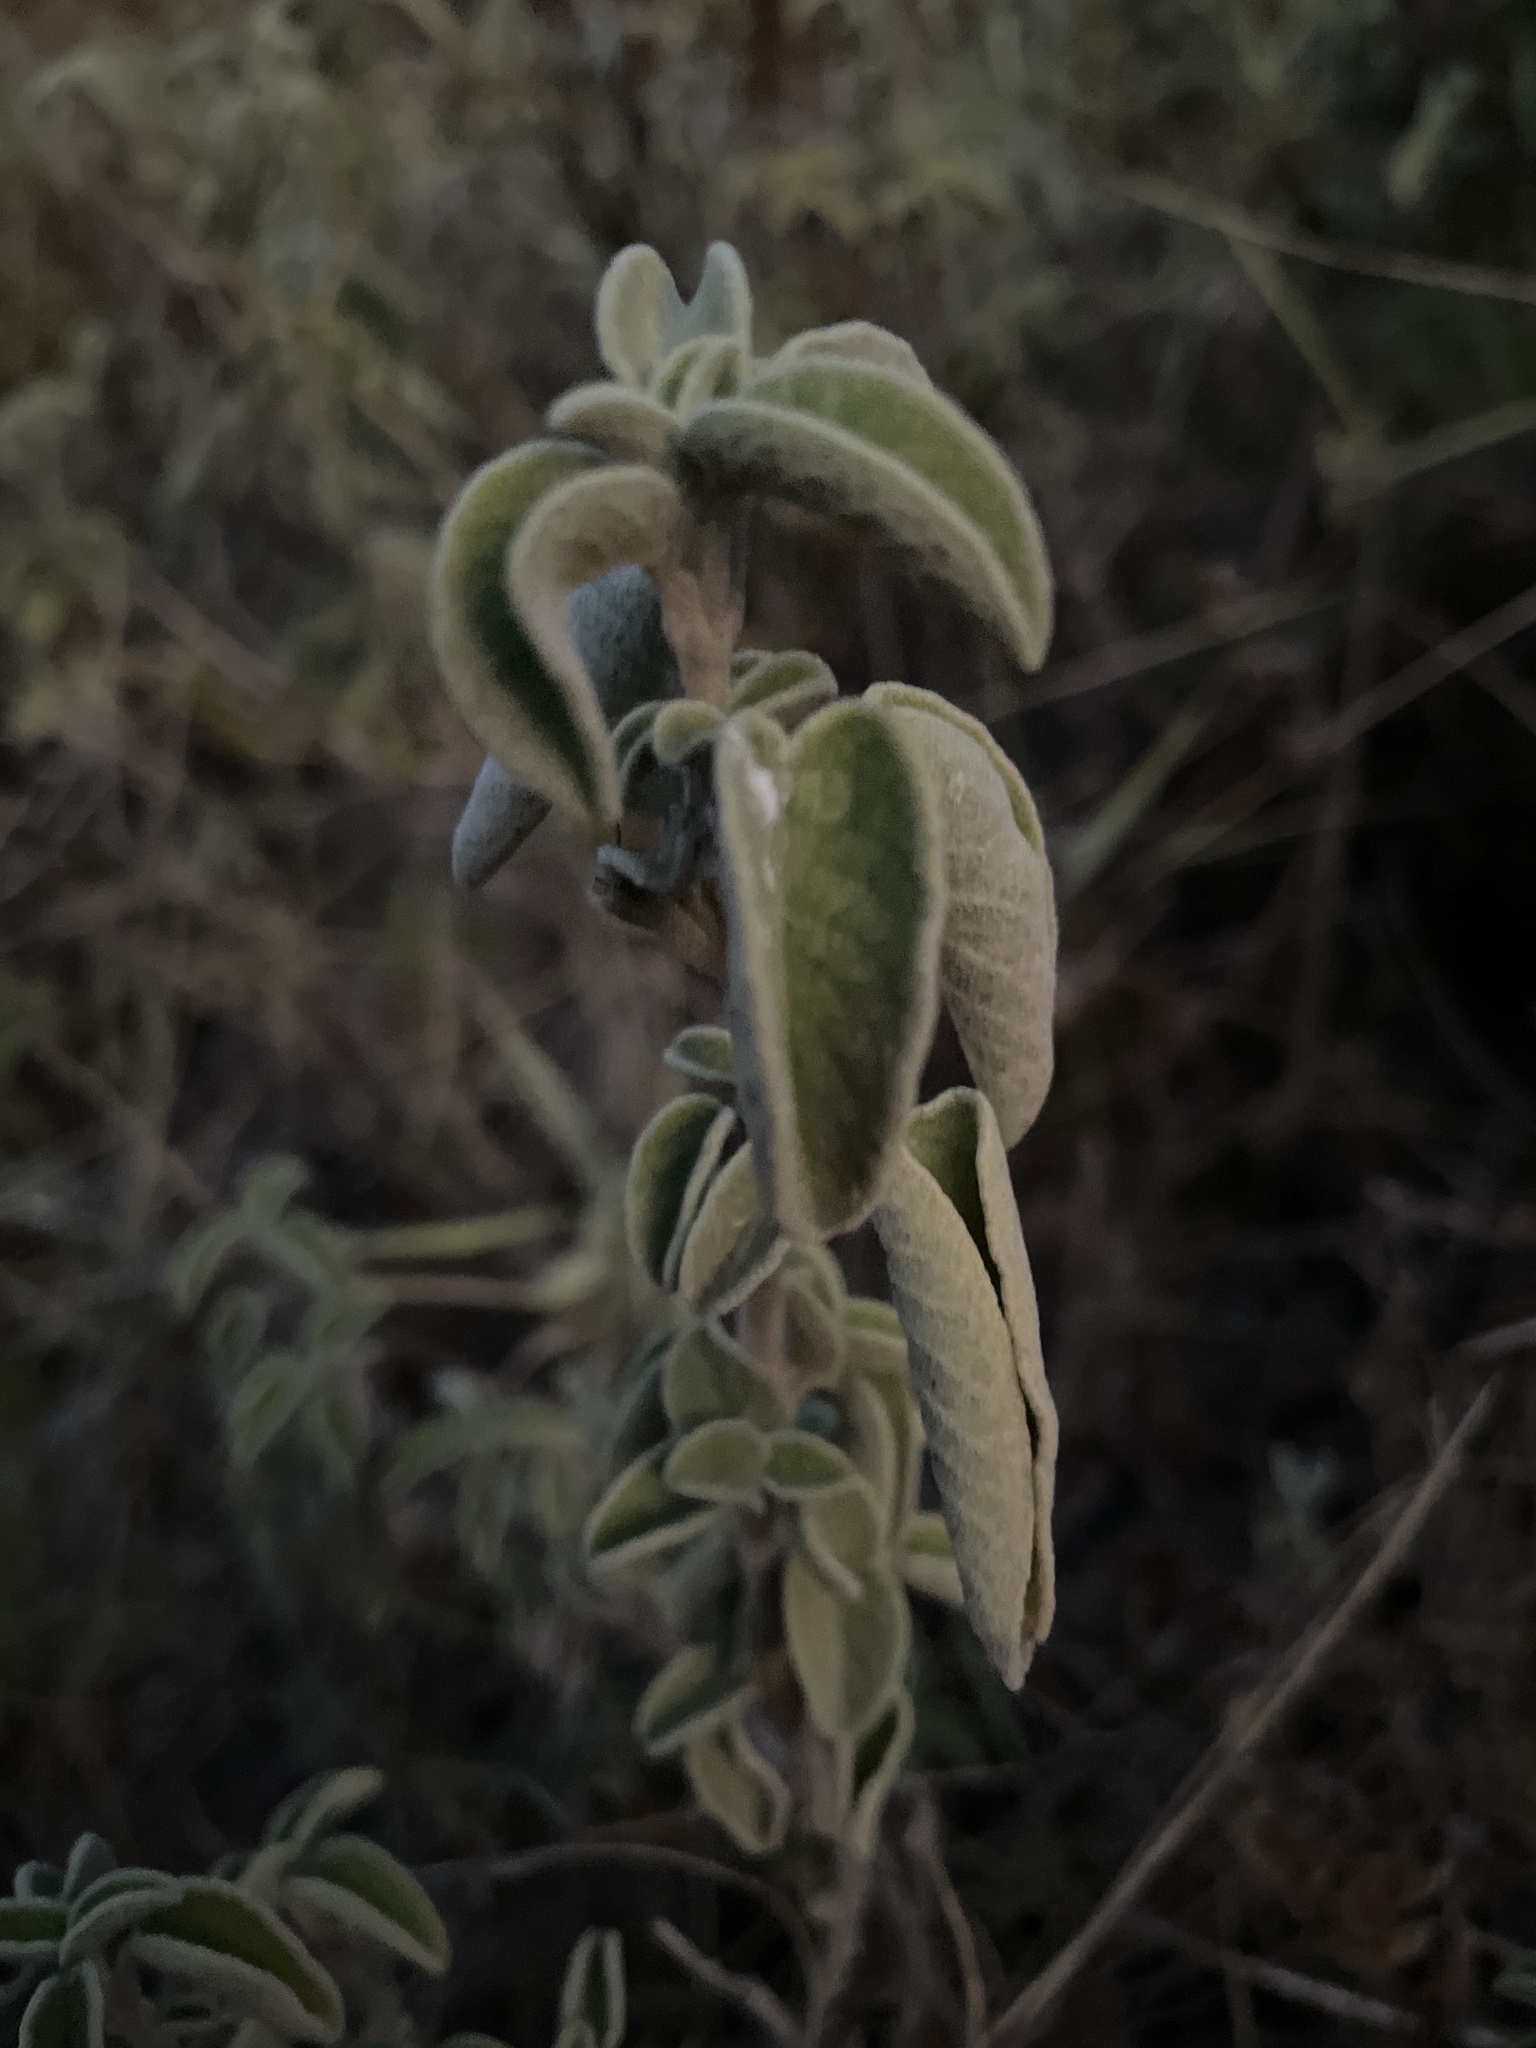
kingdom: Plantae
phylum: Tracheophyta
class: Magnoliopsida
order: Lamiales
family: Lamiaceae
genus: Salvia
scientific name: Salvia fruticosa
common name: Greek sage
